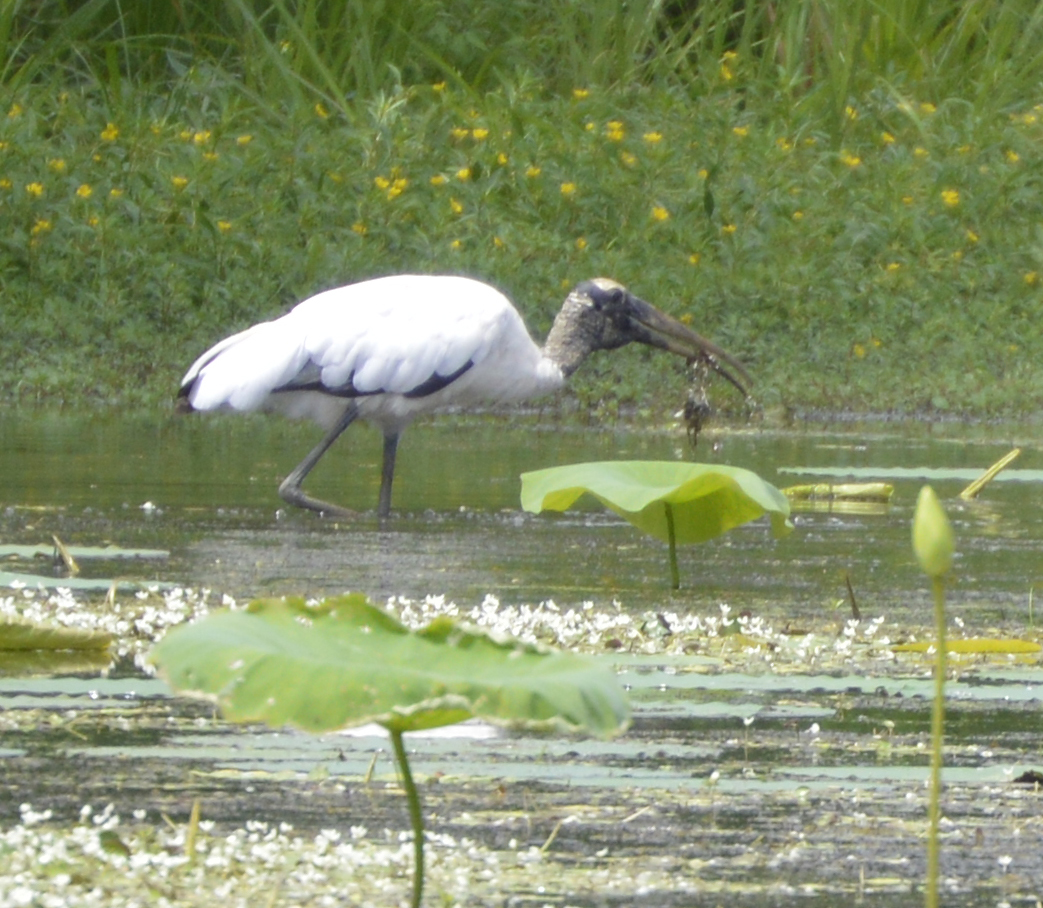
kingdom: Animalia
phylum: Chordata
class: Aves
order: Ciconiiformes
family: Ciconiidae
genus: Mycteria
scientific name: Mycteria americana
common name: Wood stork
